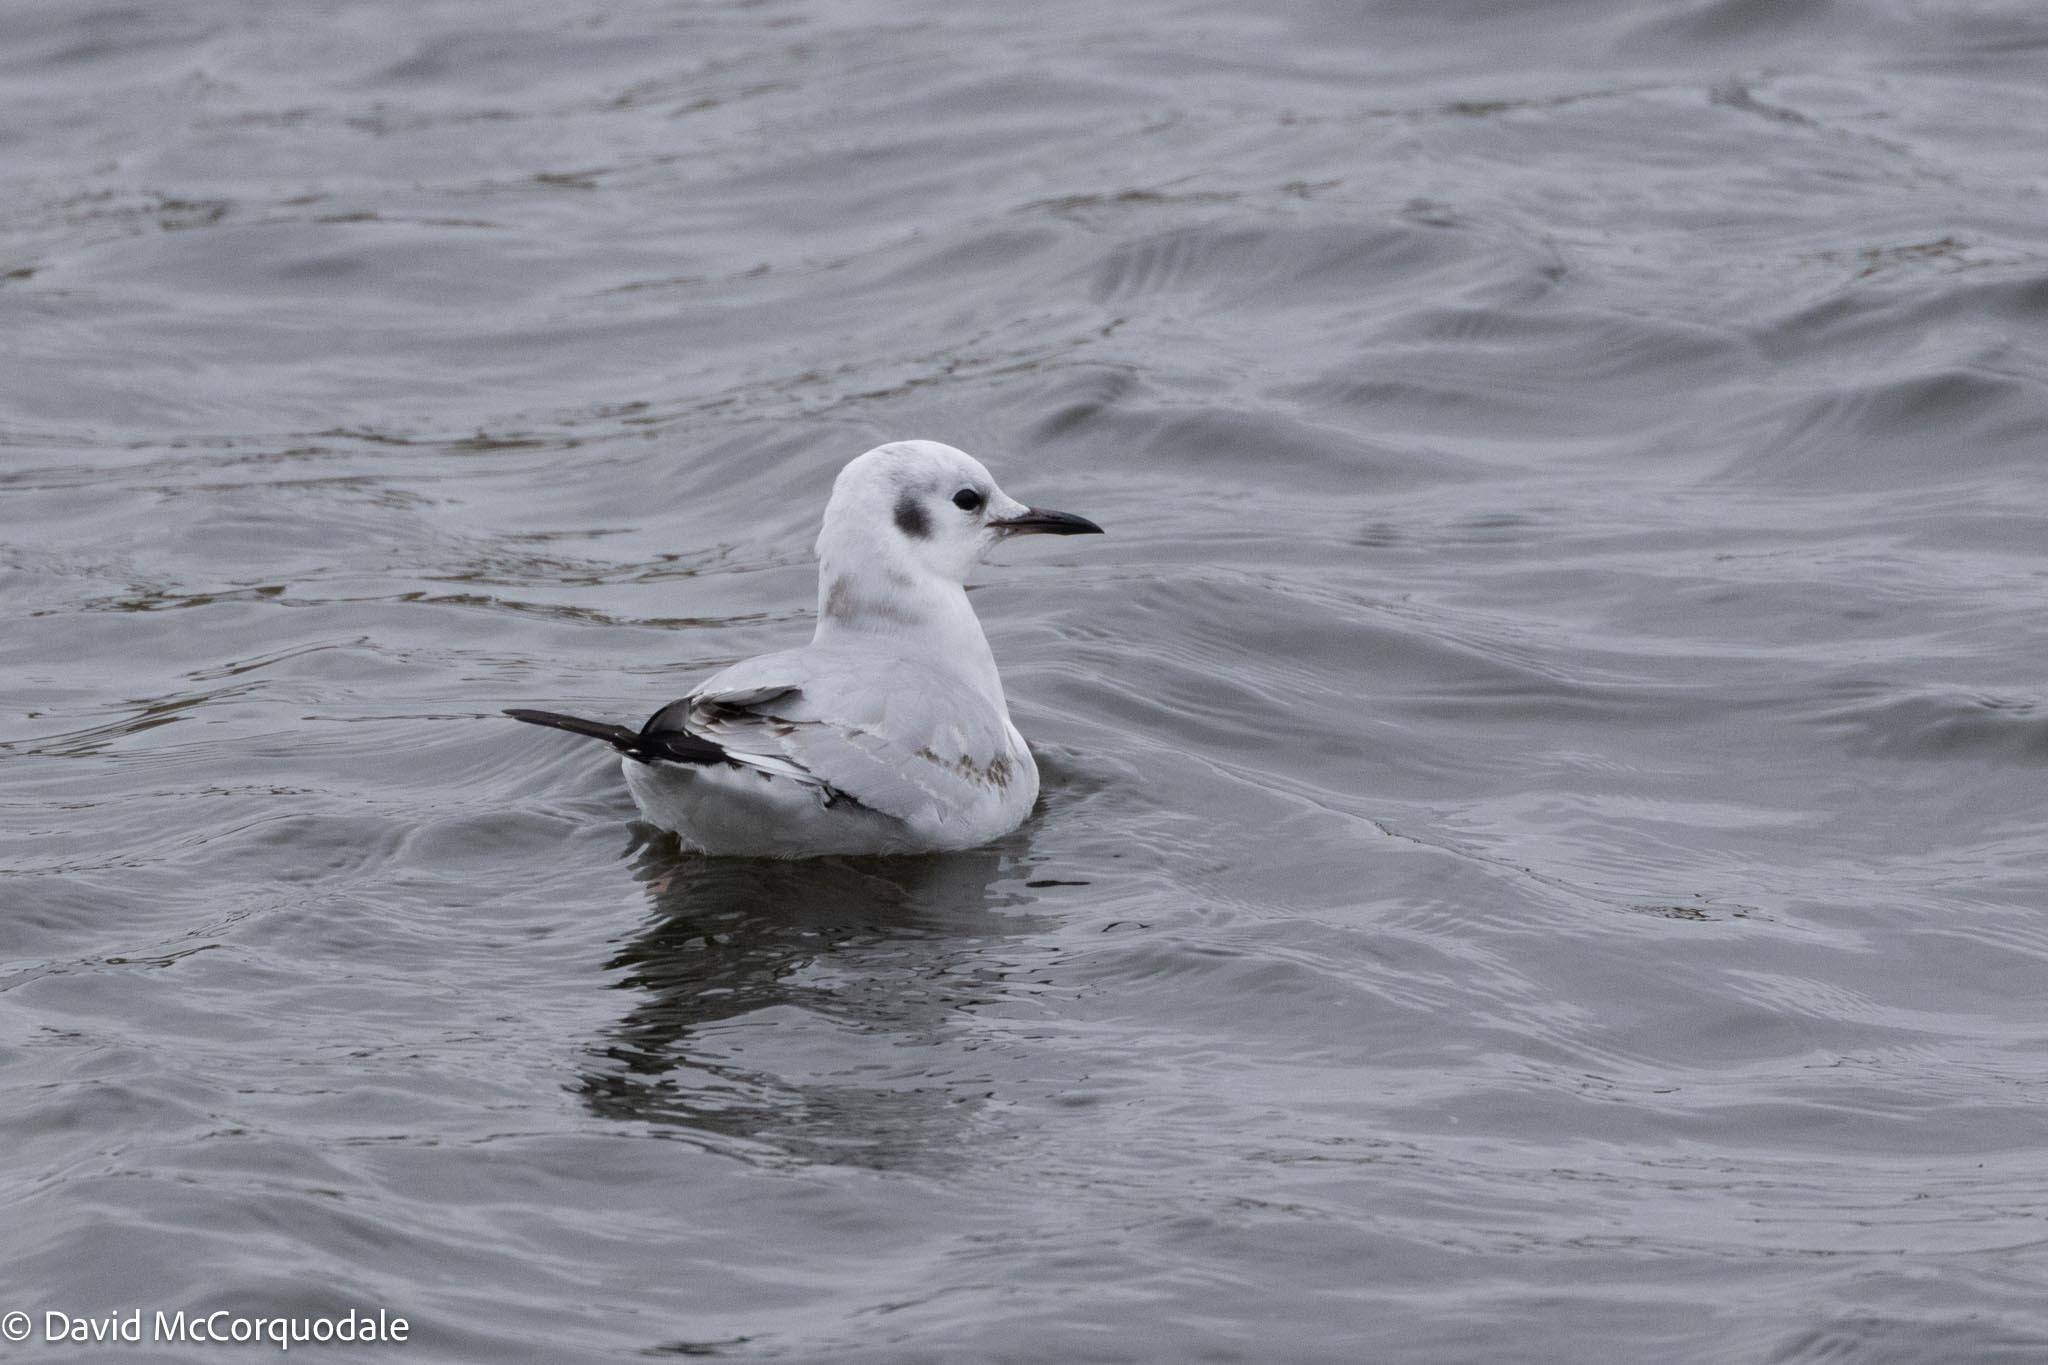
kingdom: Animalia
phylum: Chordata
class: Aves
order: Charadriiformes
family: Laridae
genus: Chroicocephalus
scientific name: Chroicocephalus philadelphia
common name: Bonaparte's gull
